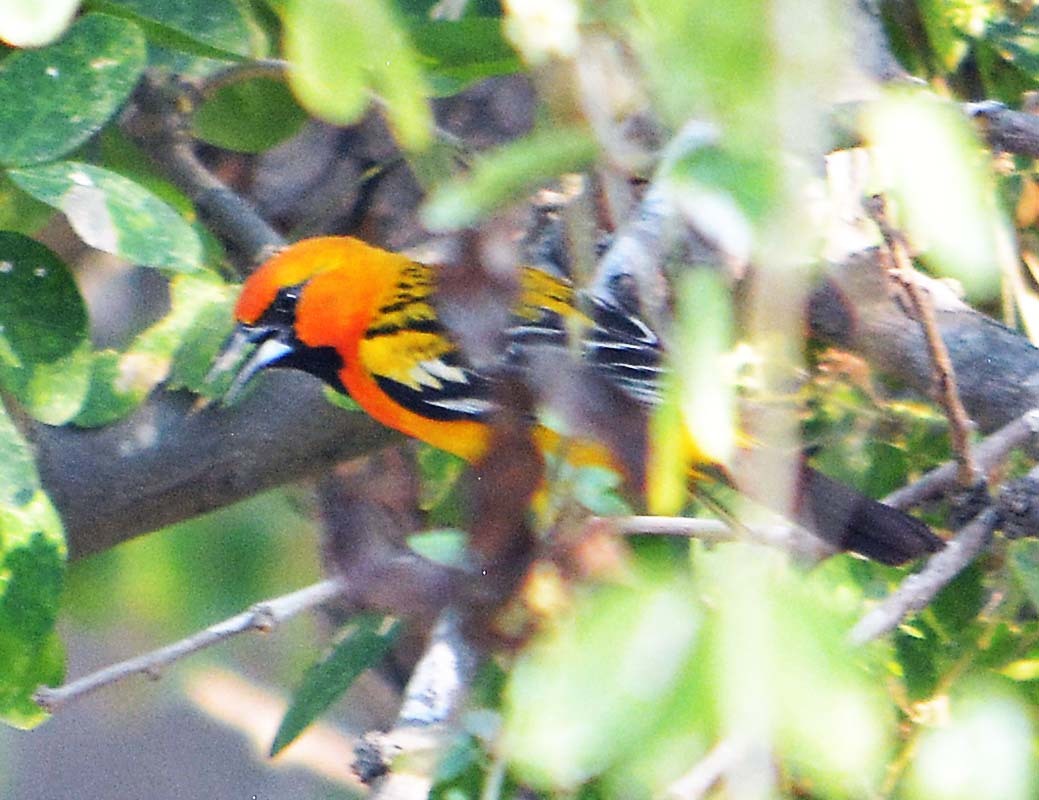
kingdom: Animalia
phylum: Chordata
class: Aves
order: Passeriformes
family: Icteridae
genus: Icterus
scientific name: Icterus pustulatus
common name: Streak-backed oriole
